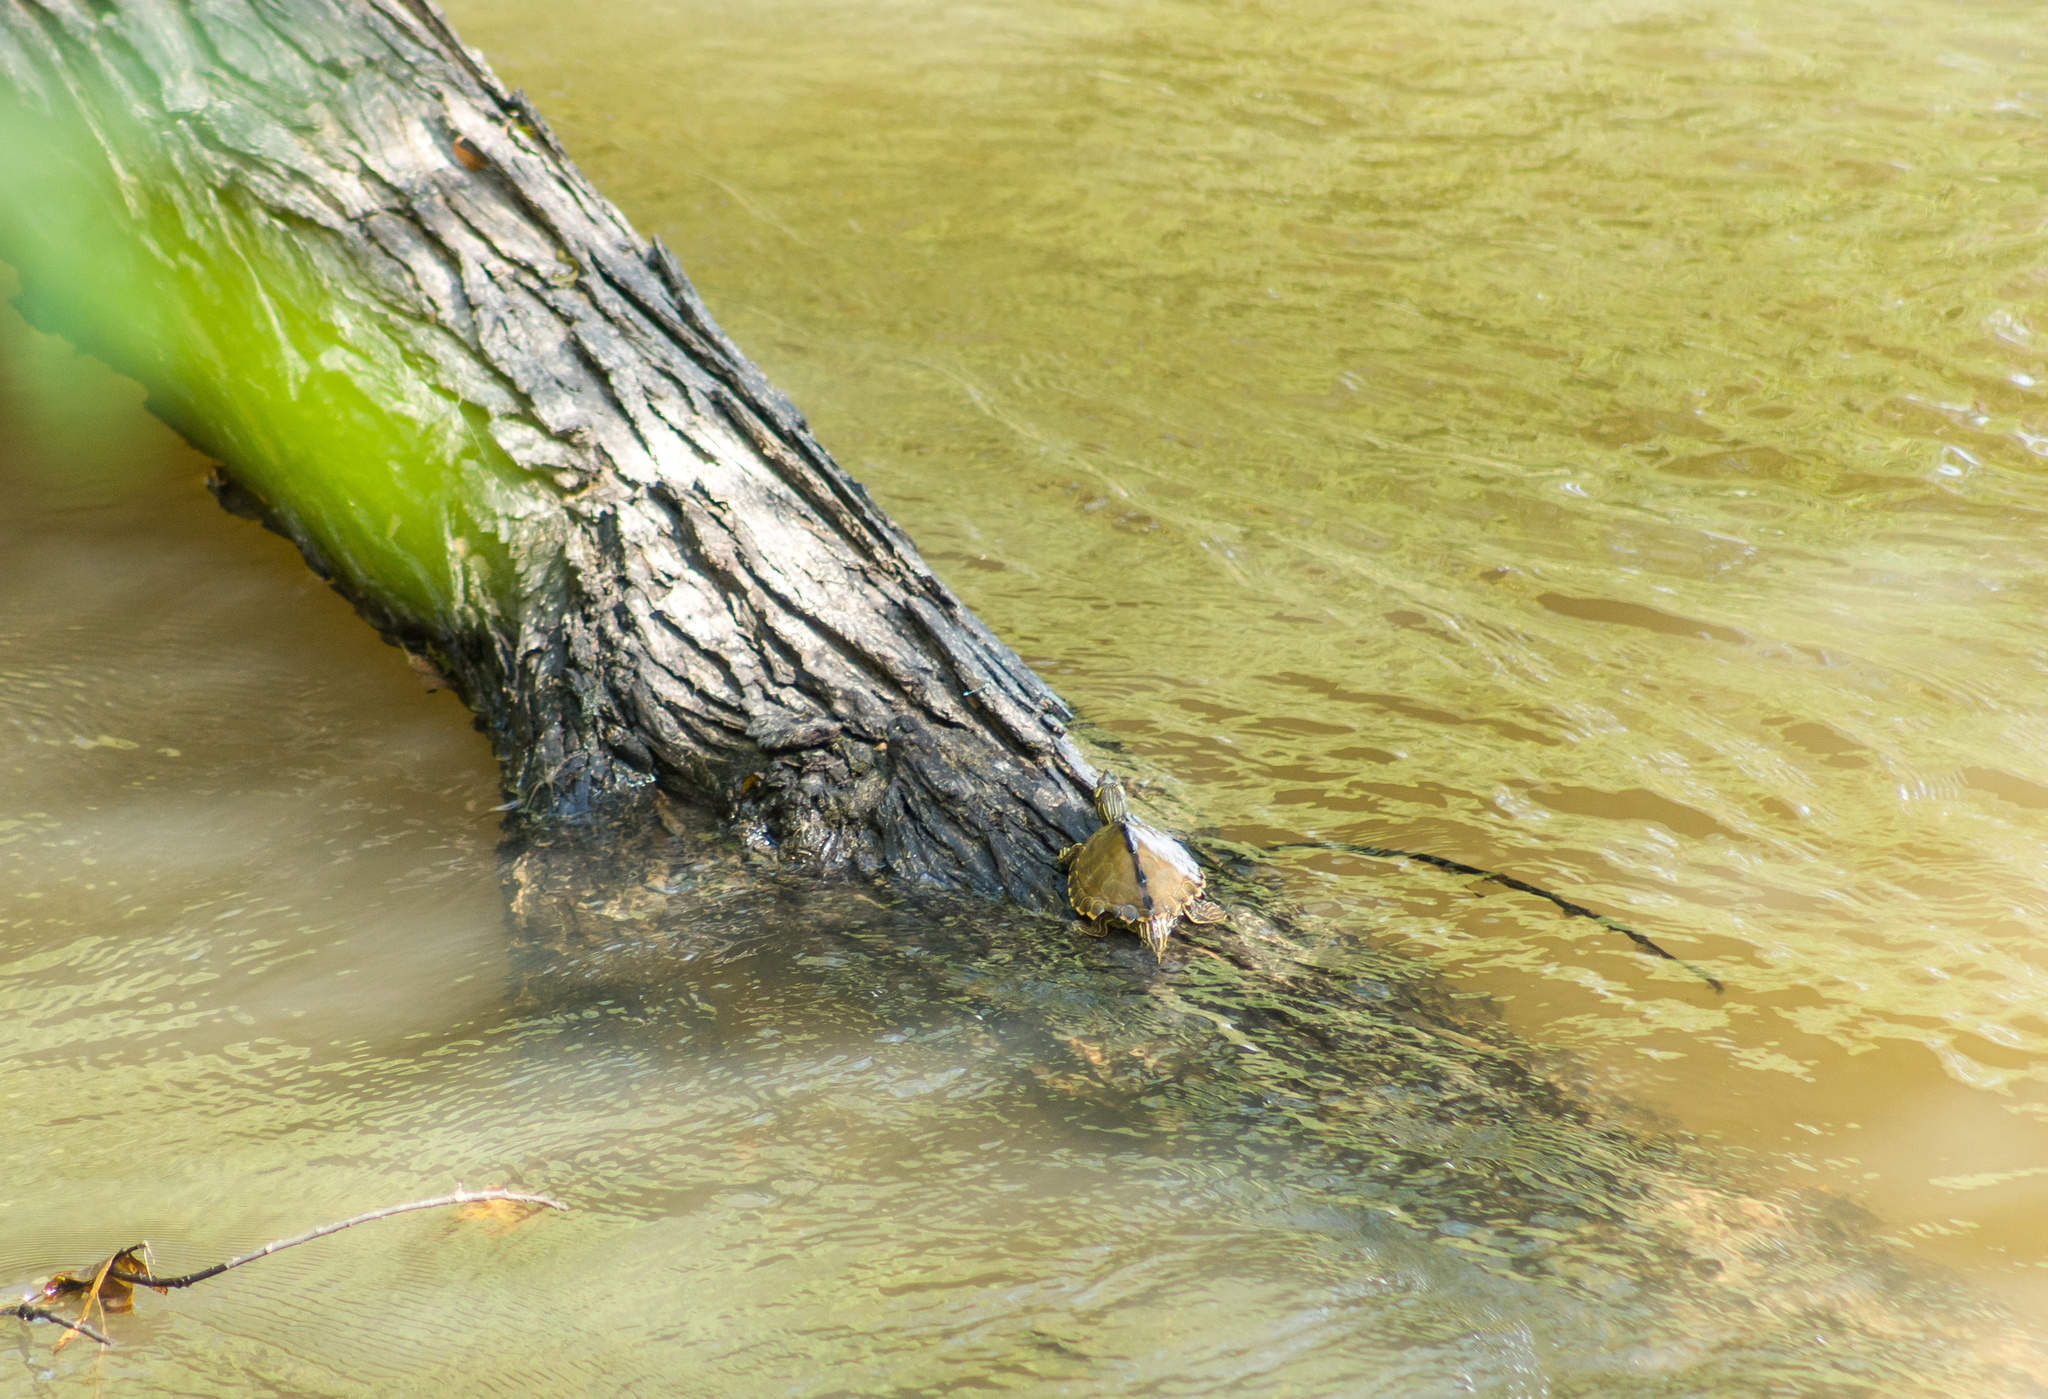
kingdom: Animalia
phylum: Chordata
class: Testudines
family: Emydidae
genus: Graptemys
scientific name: Graptemys pearlensis
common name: Pearl river map turtle
